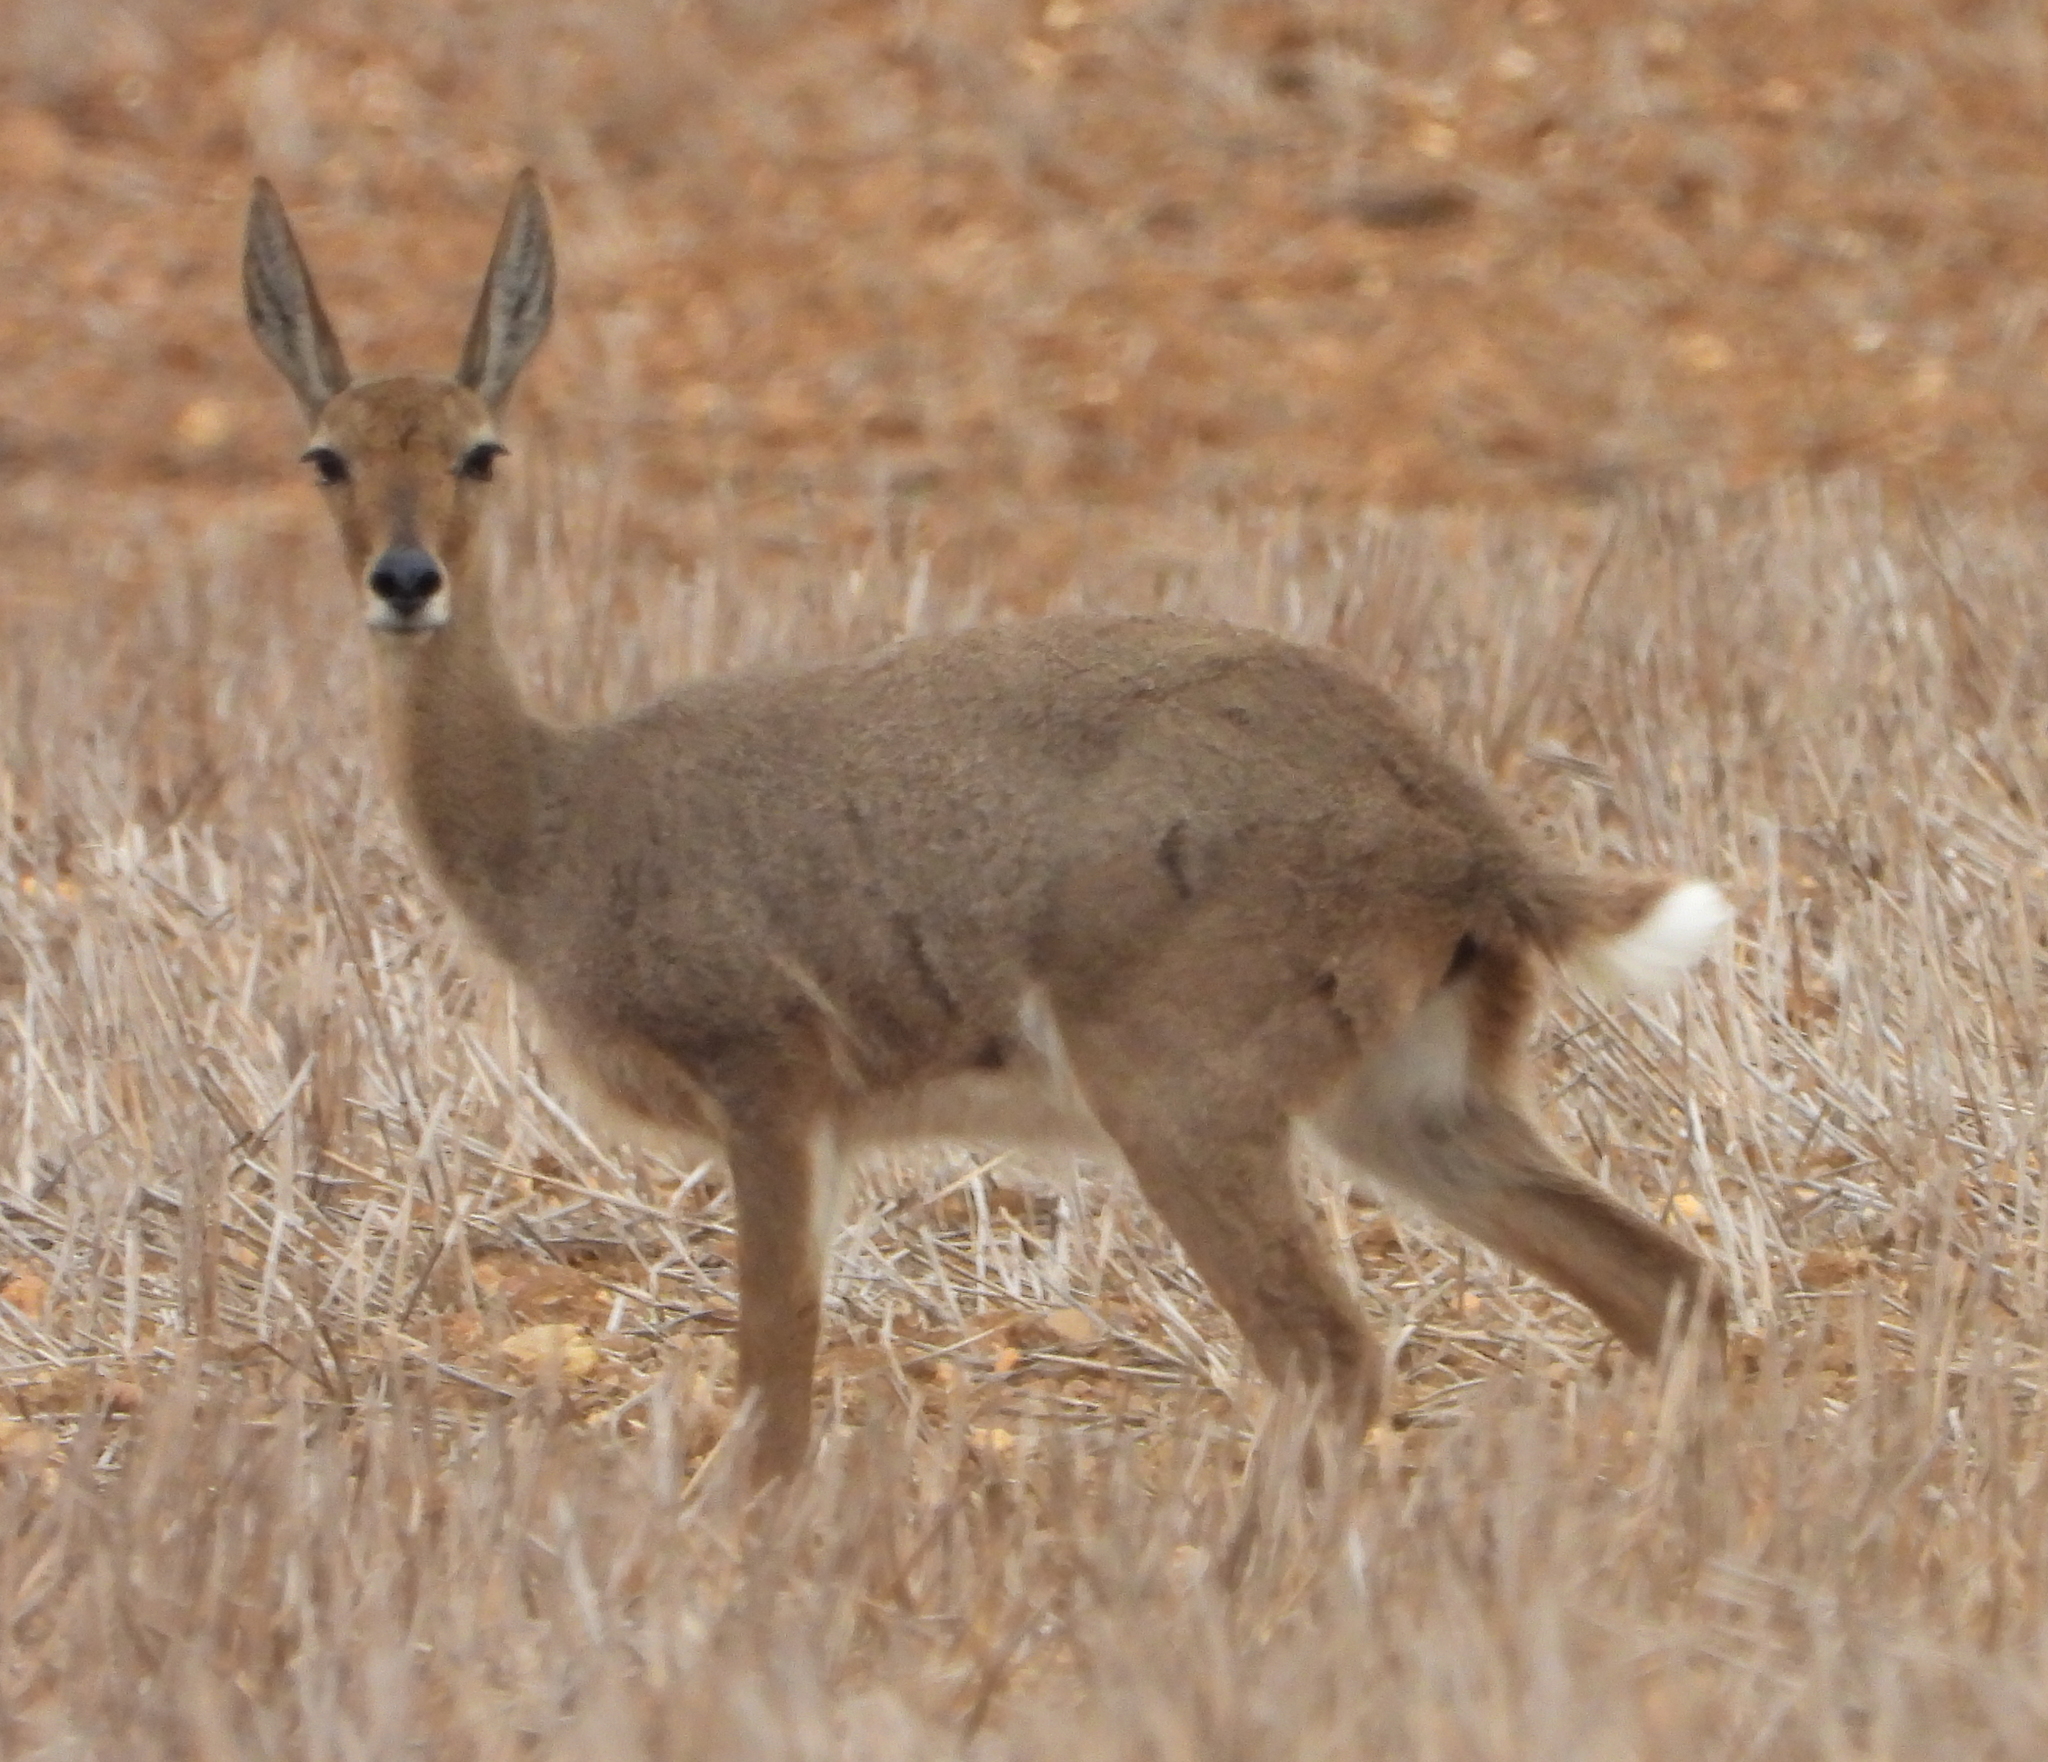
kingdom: Animalia
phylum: Chordata
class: Mammalia
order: Artiodactyla
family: Bovidae
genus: Pelea
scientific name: Pelea capreolus
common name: Common rhebok
